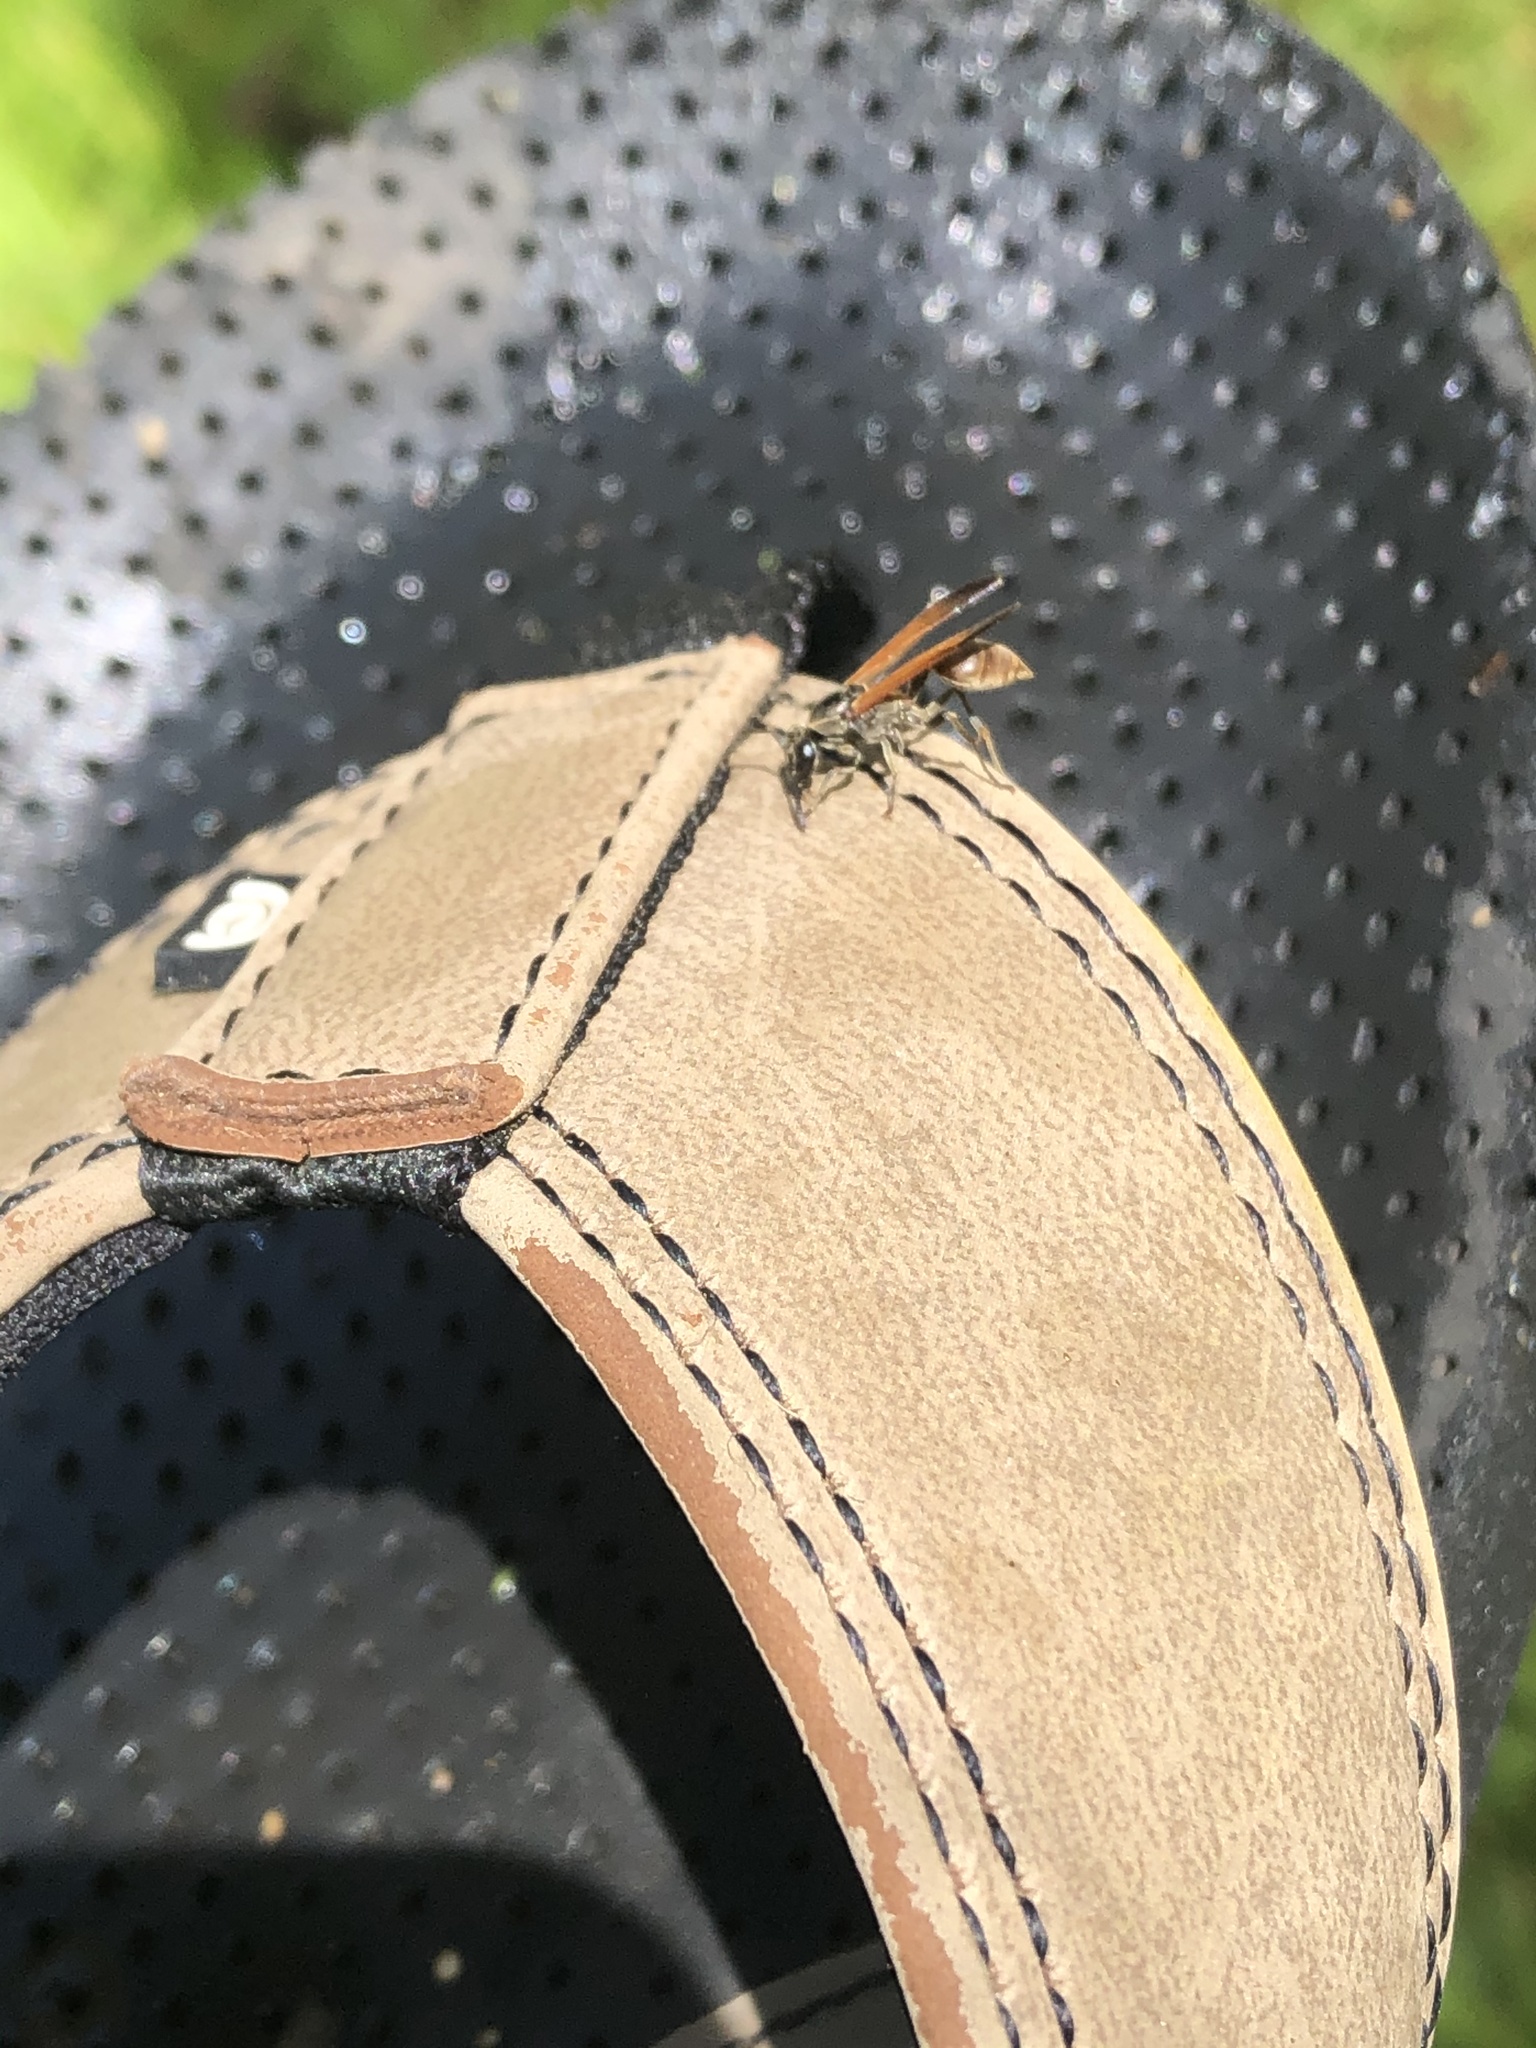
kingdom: Animalia
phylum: Arthropoda
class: Insecta
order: Hymenoptera
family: Eumenidae
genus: Polybia
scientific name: Polybia rejecta
